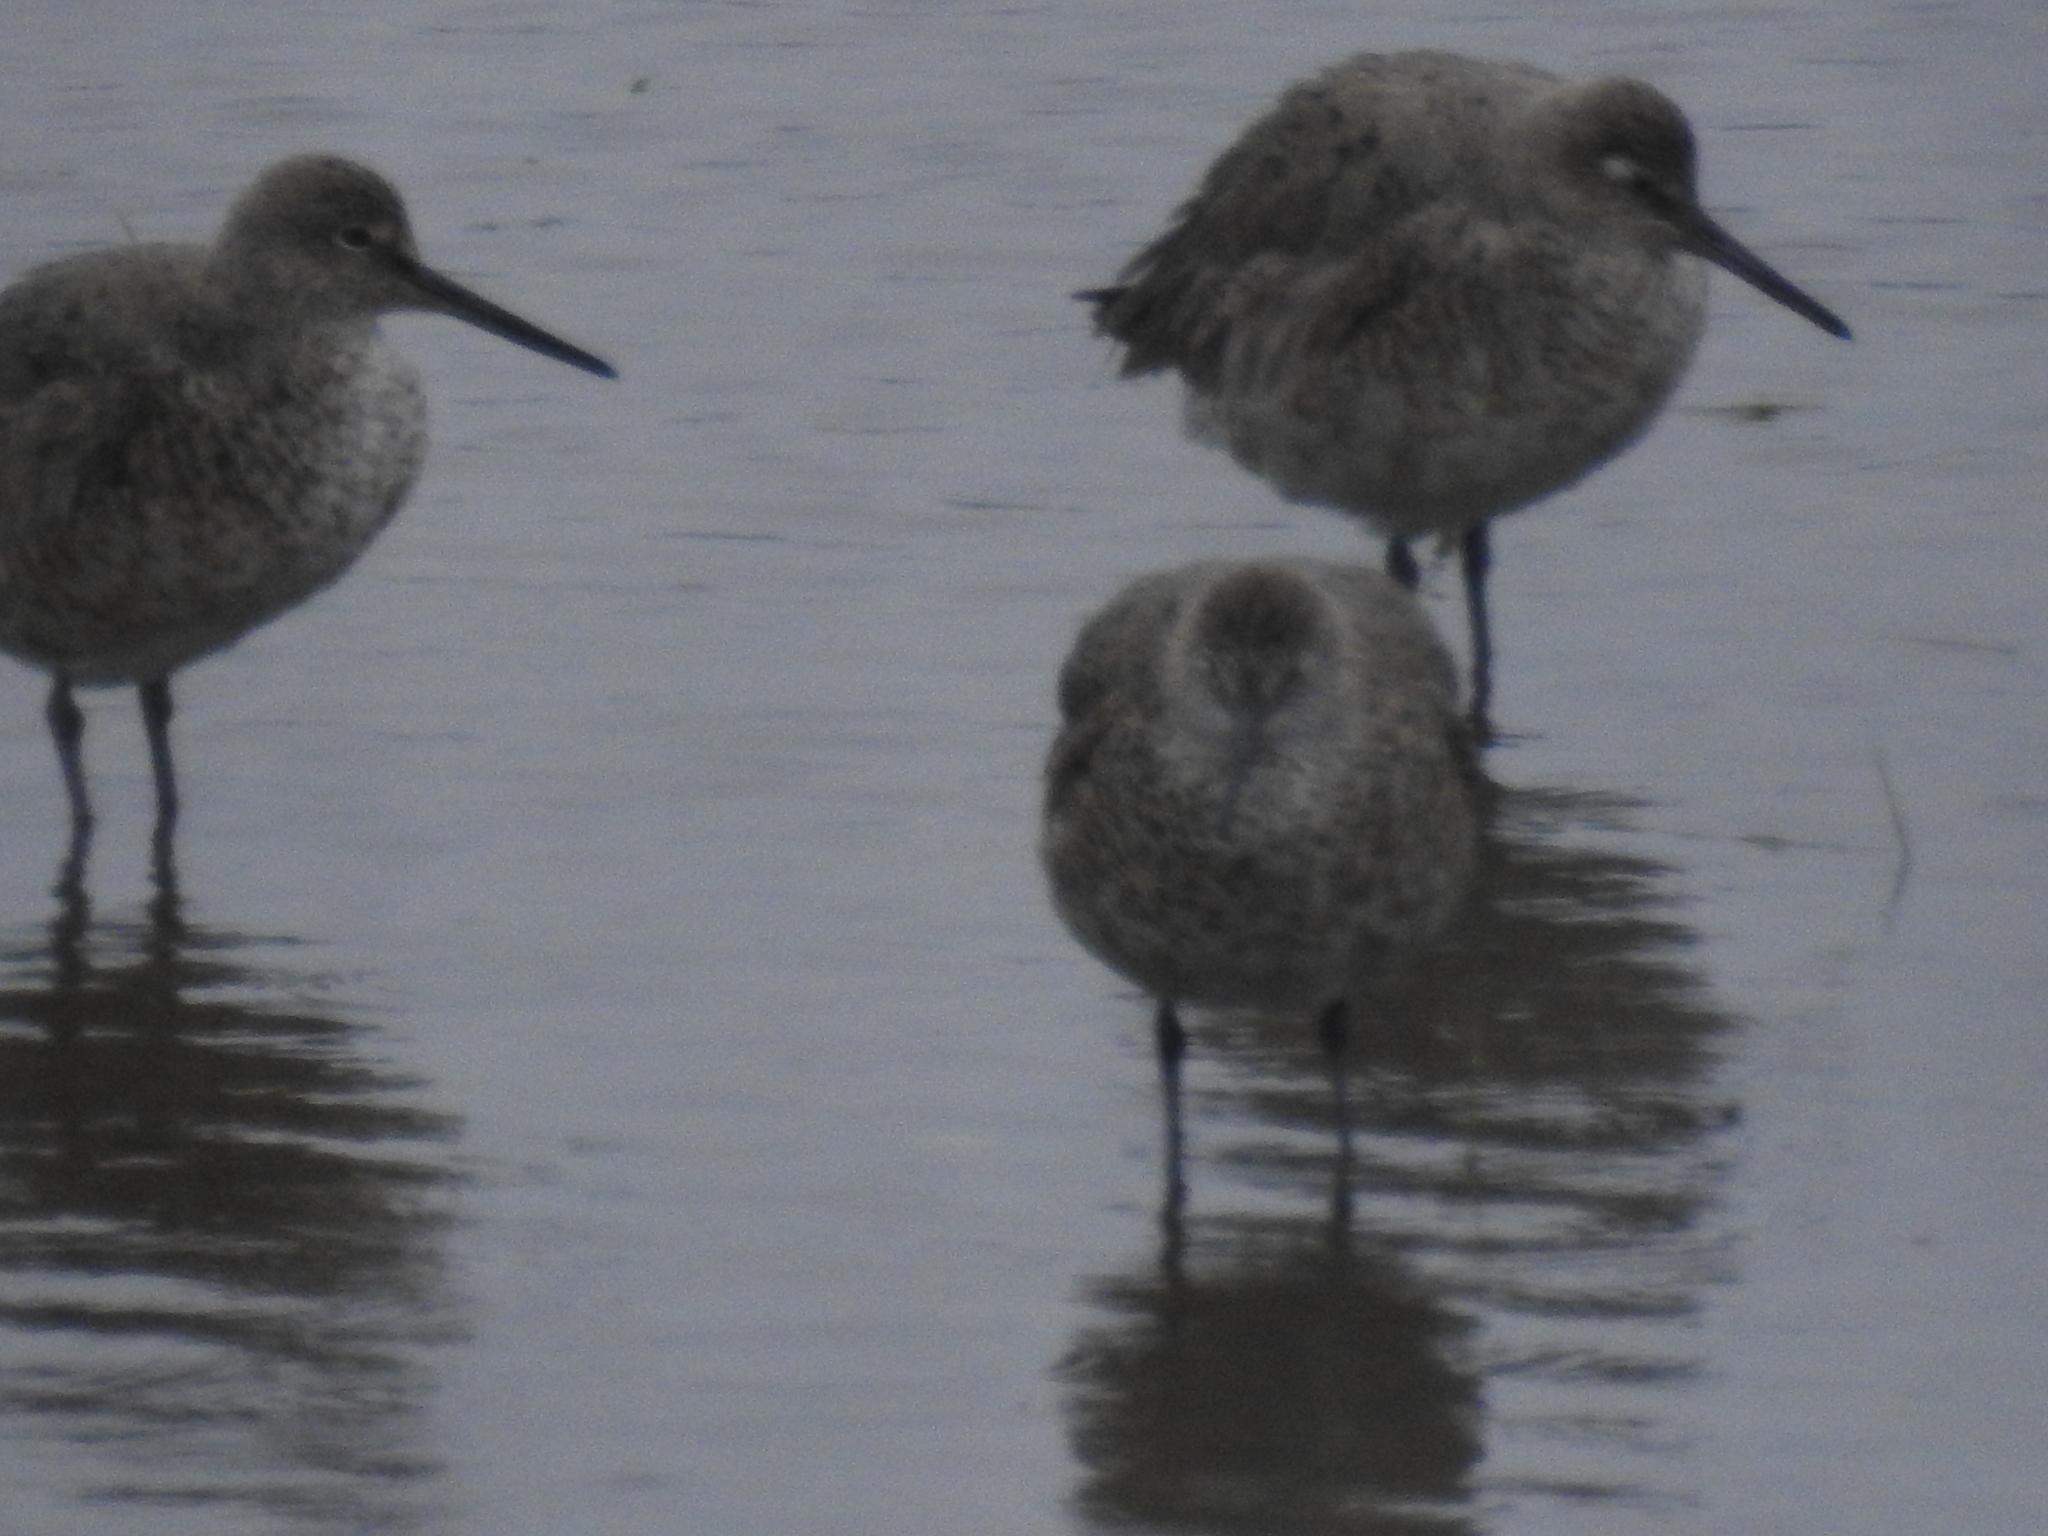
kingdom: Animalia
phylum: Chordata
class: Aves
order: Charadriiformes
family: Scolopacidae
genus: Tringa
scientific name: Tringa semipalmata
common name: Willet
